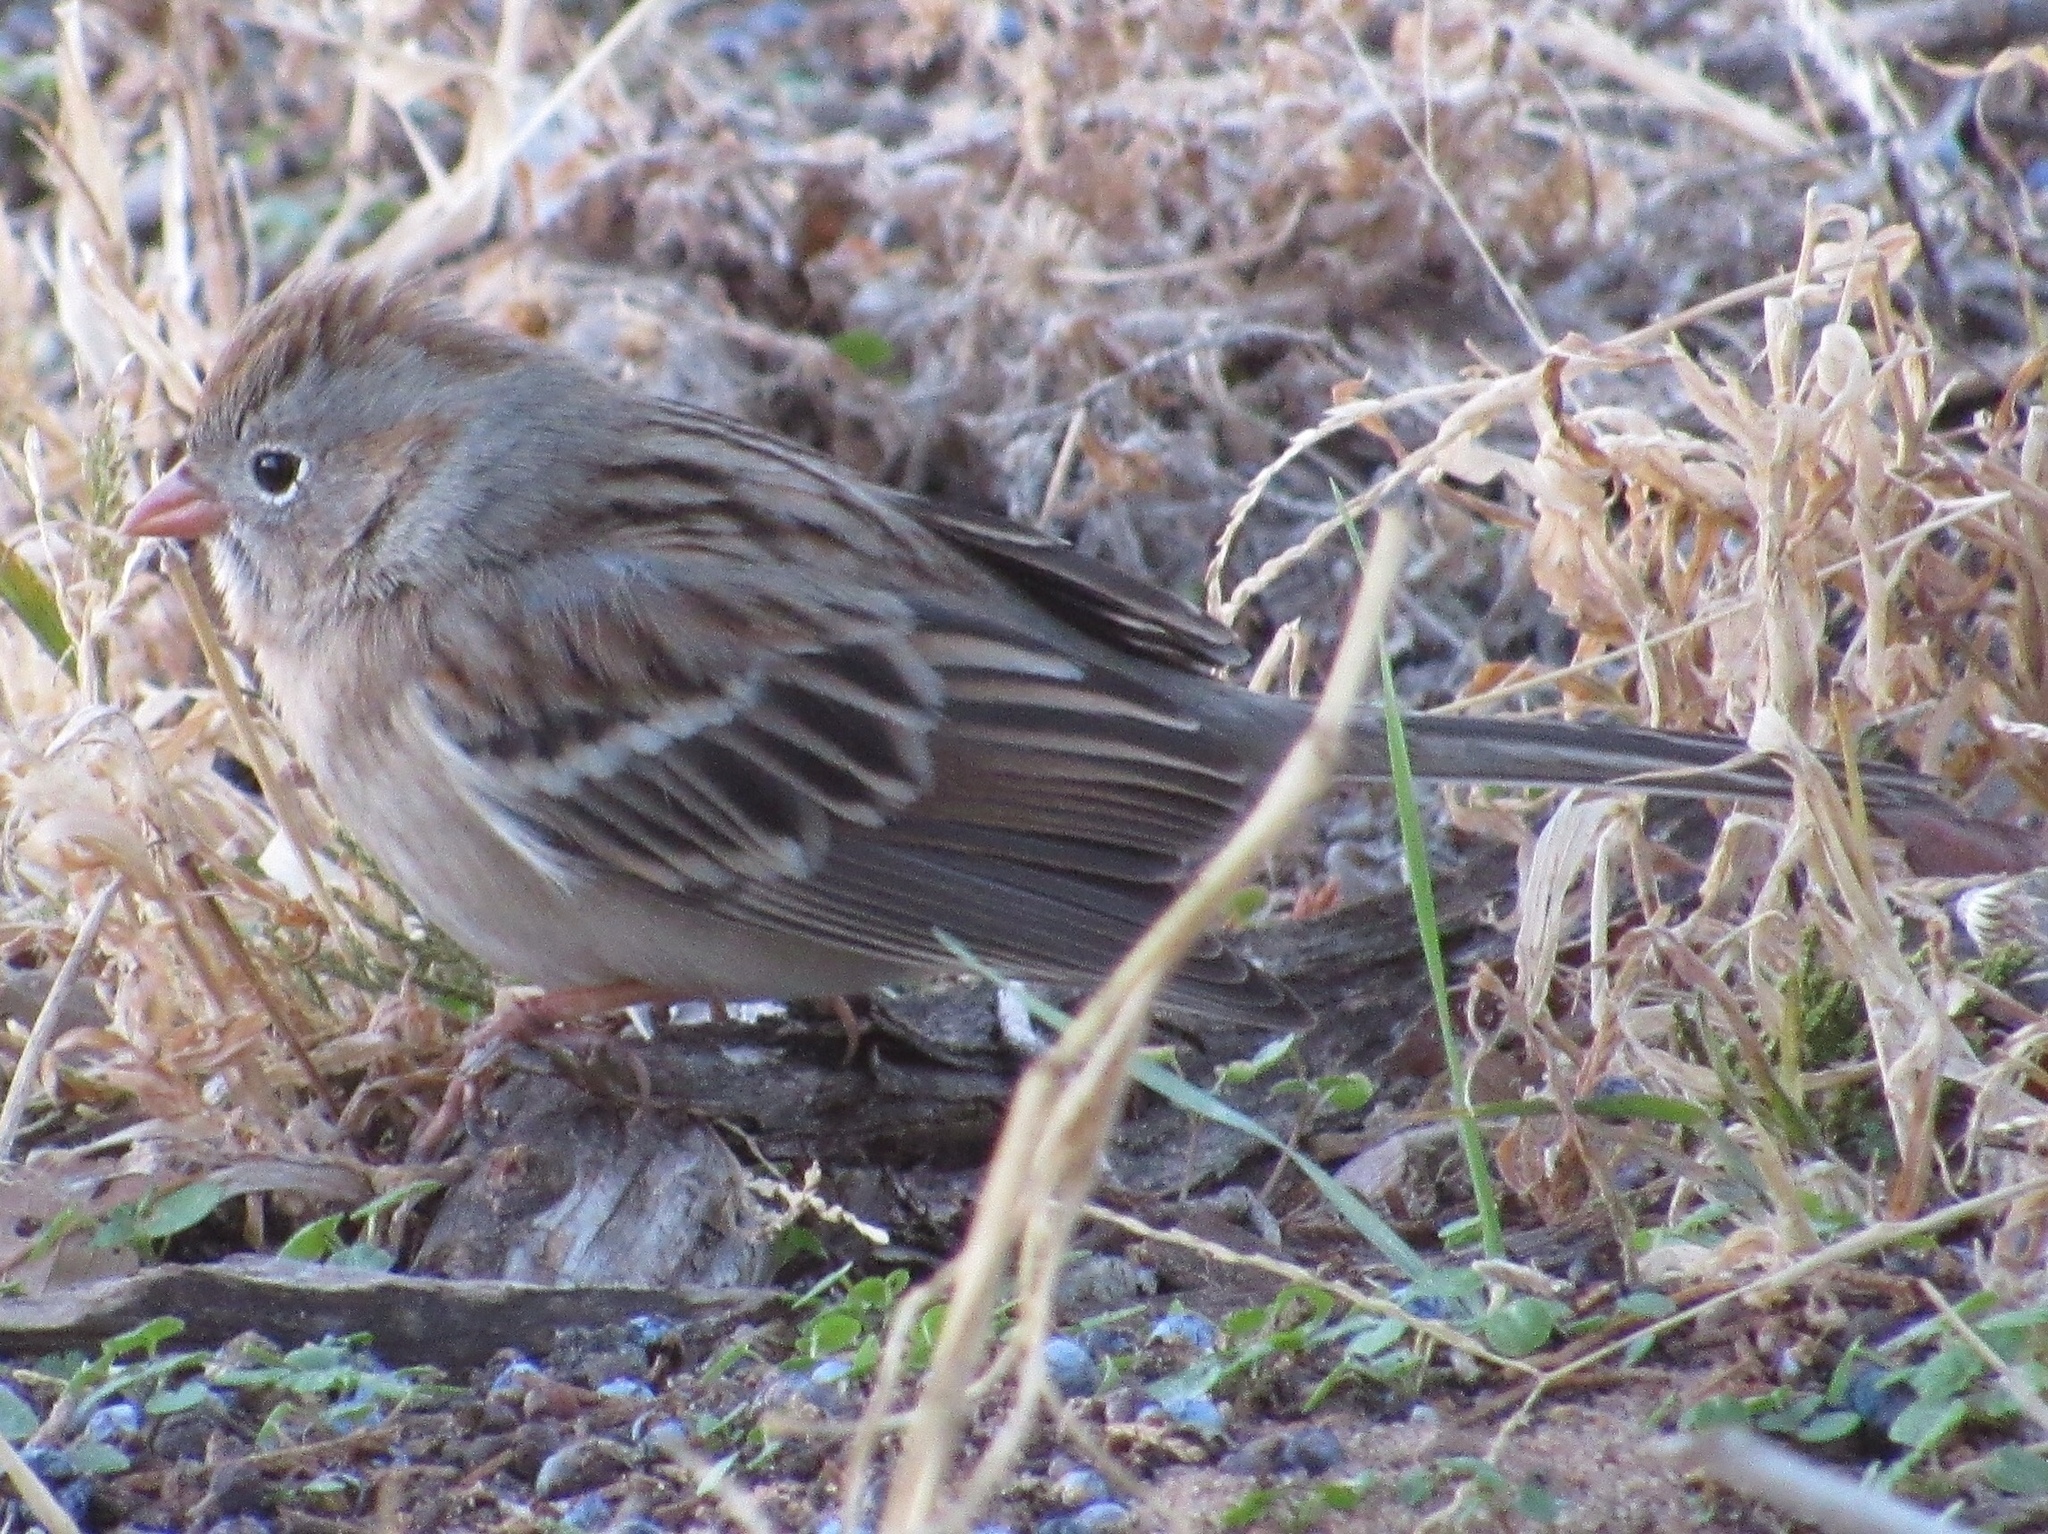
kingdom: Animalia
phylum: Chordata
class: Aves
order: Passeriformes
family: Passerellidae
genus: Spizella
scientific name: Spizella pusilla
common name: Field sparrow
